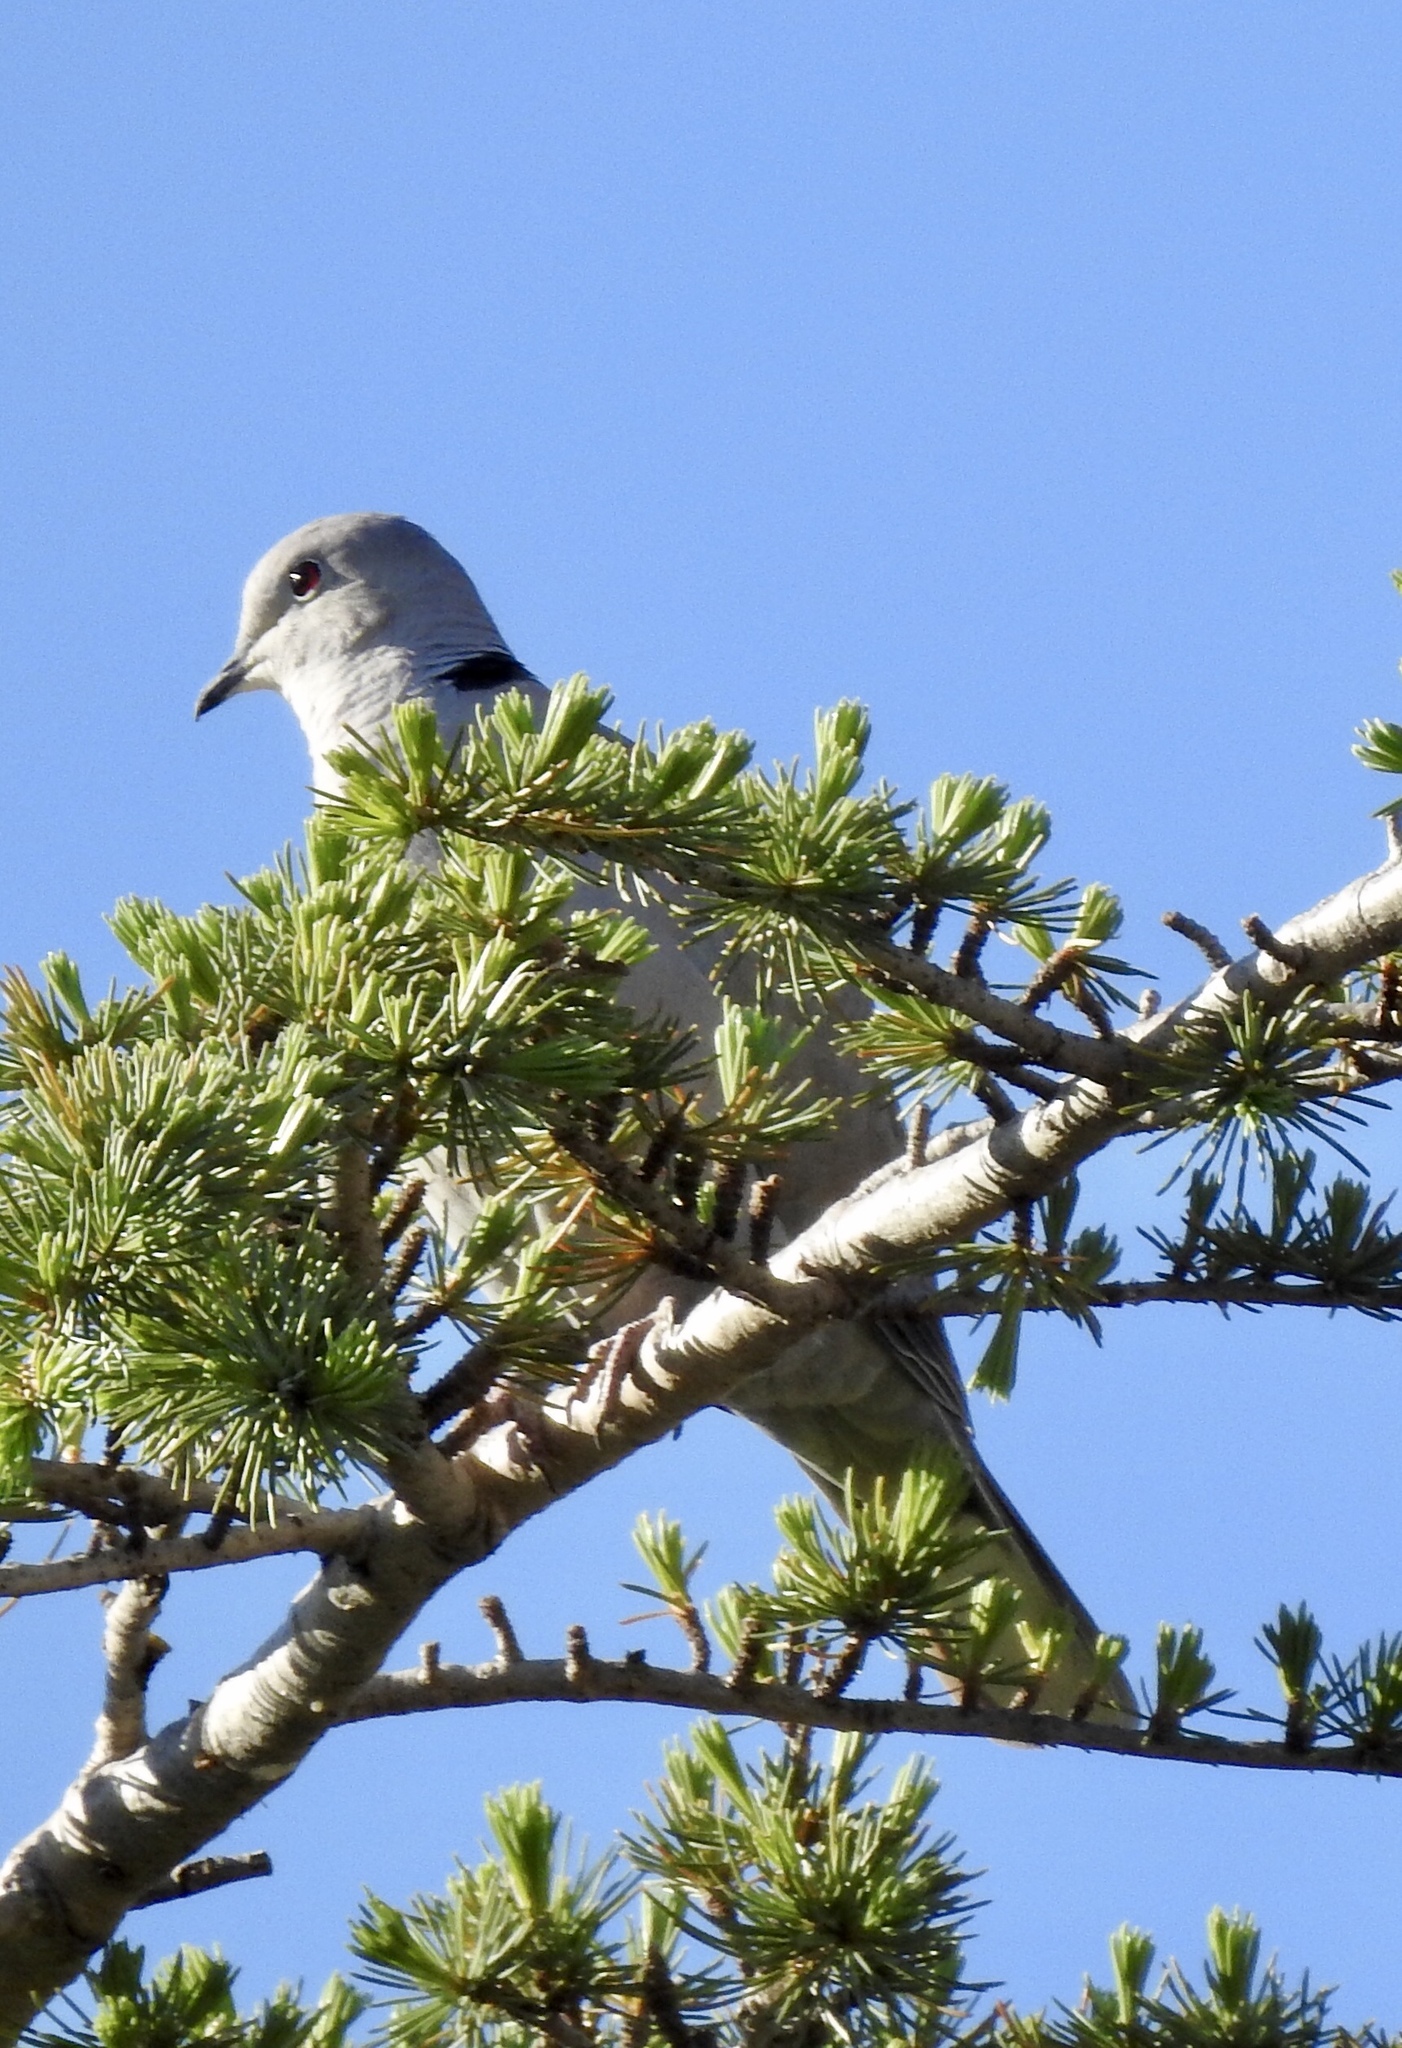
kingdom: Animalia
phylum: Chordata
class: Aves
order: Columbiformes
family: Columbidae
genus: Streptopelia
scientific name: Streptopelia decaocto
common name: Eurasian collared dove
